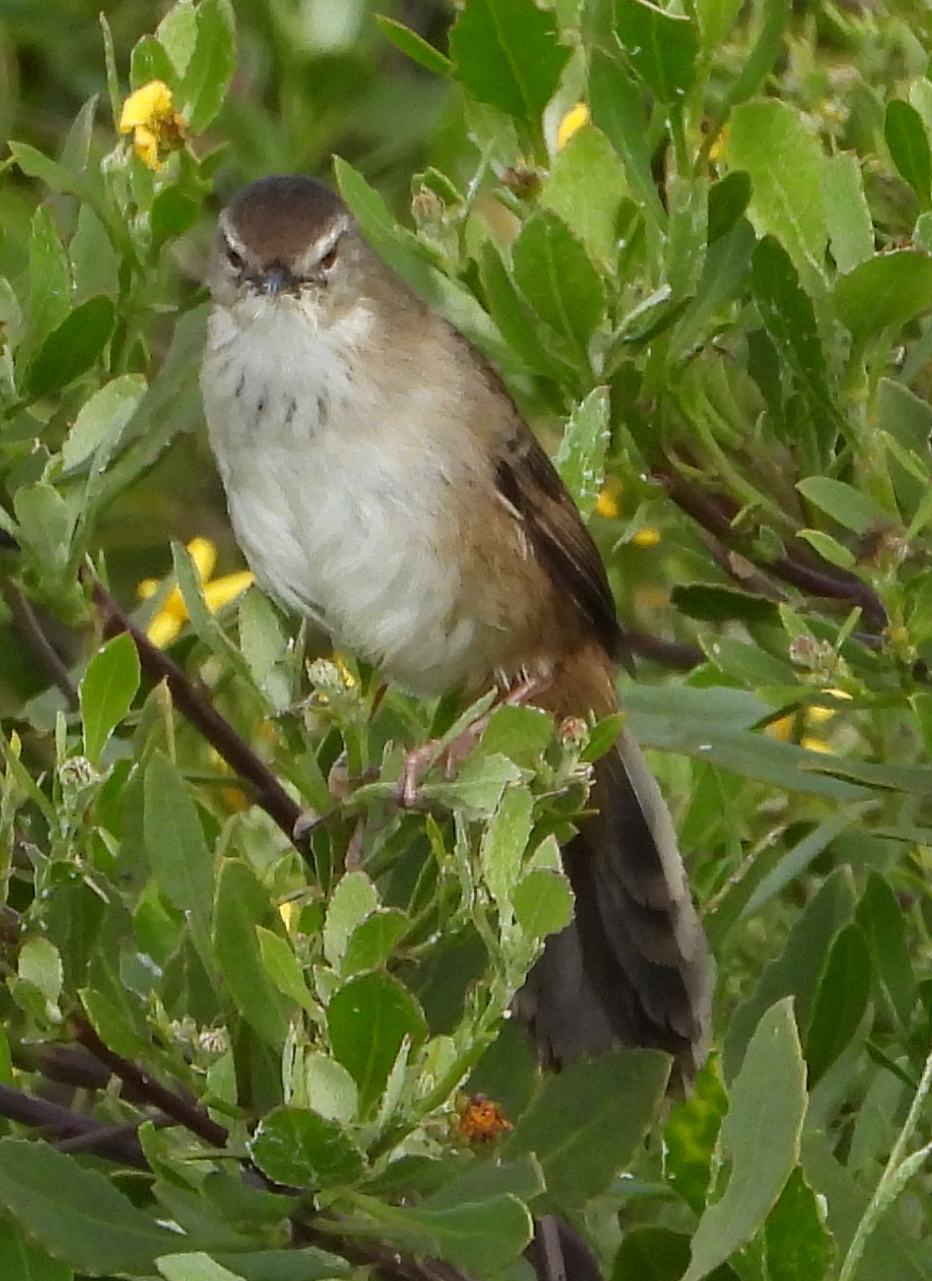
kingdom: Animalia
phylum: Chordata
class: Aves
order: Passeriformes
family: Locustellidae
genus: Bradypterus
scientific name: Bradypterus baboecala
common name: Little rush warbler
